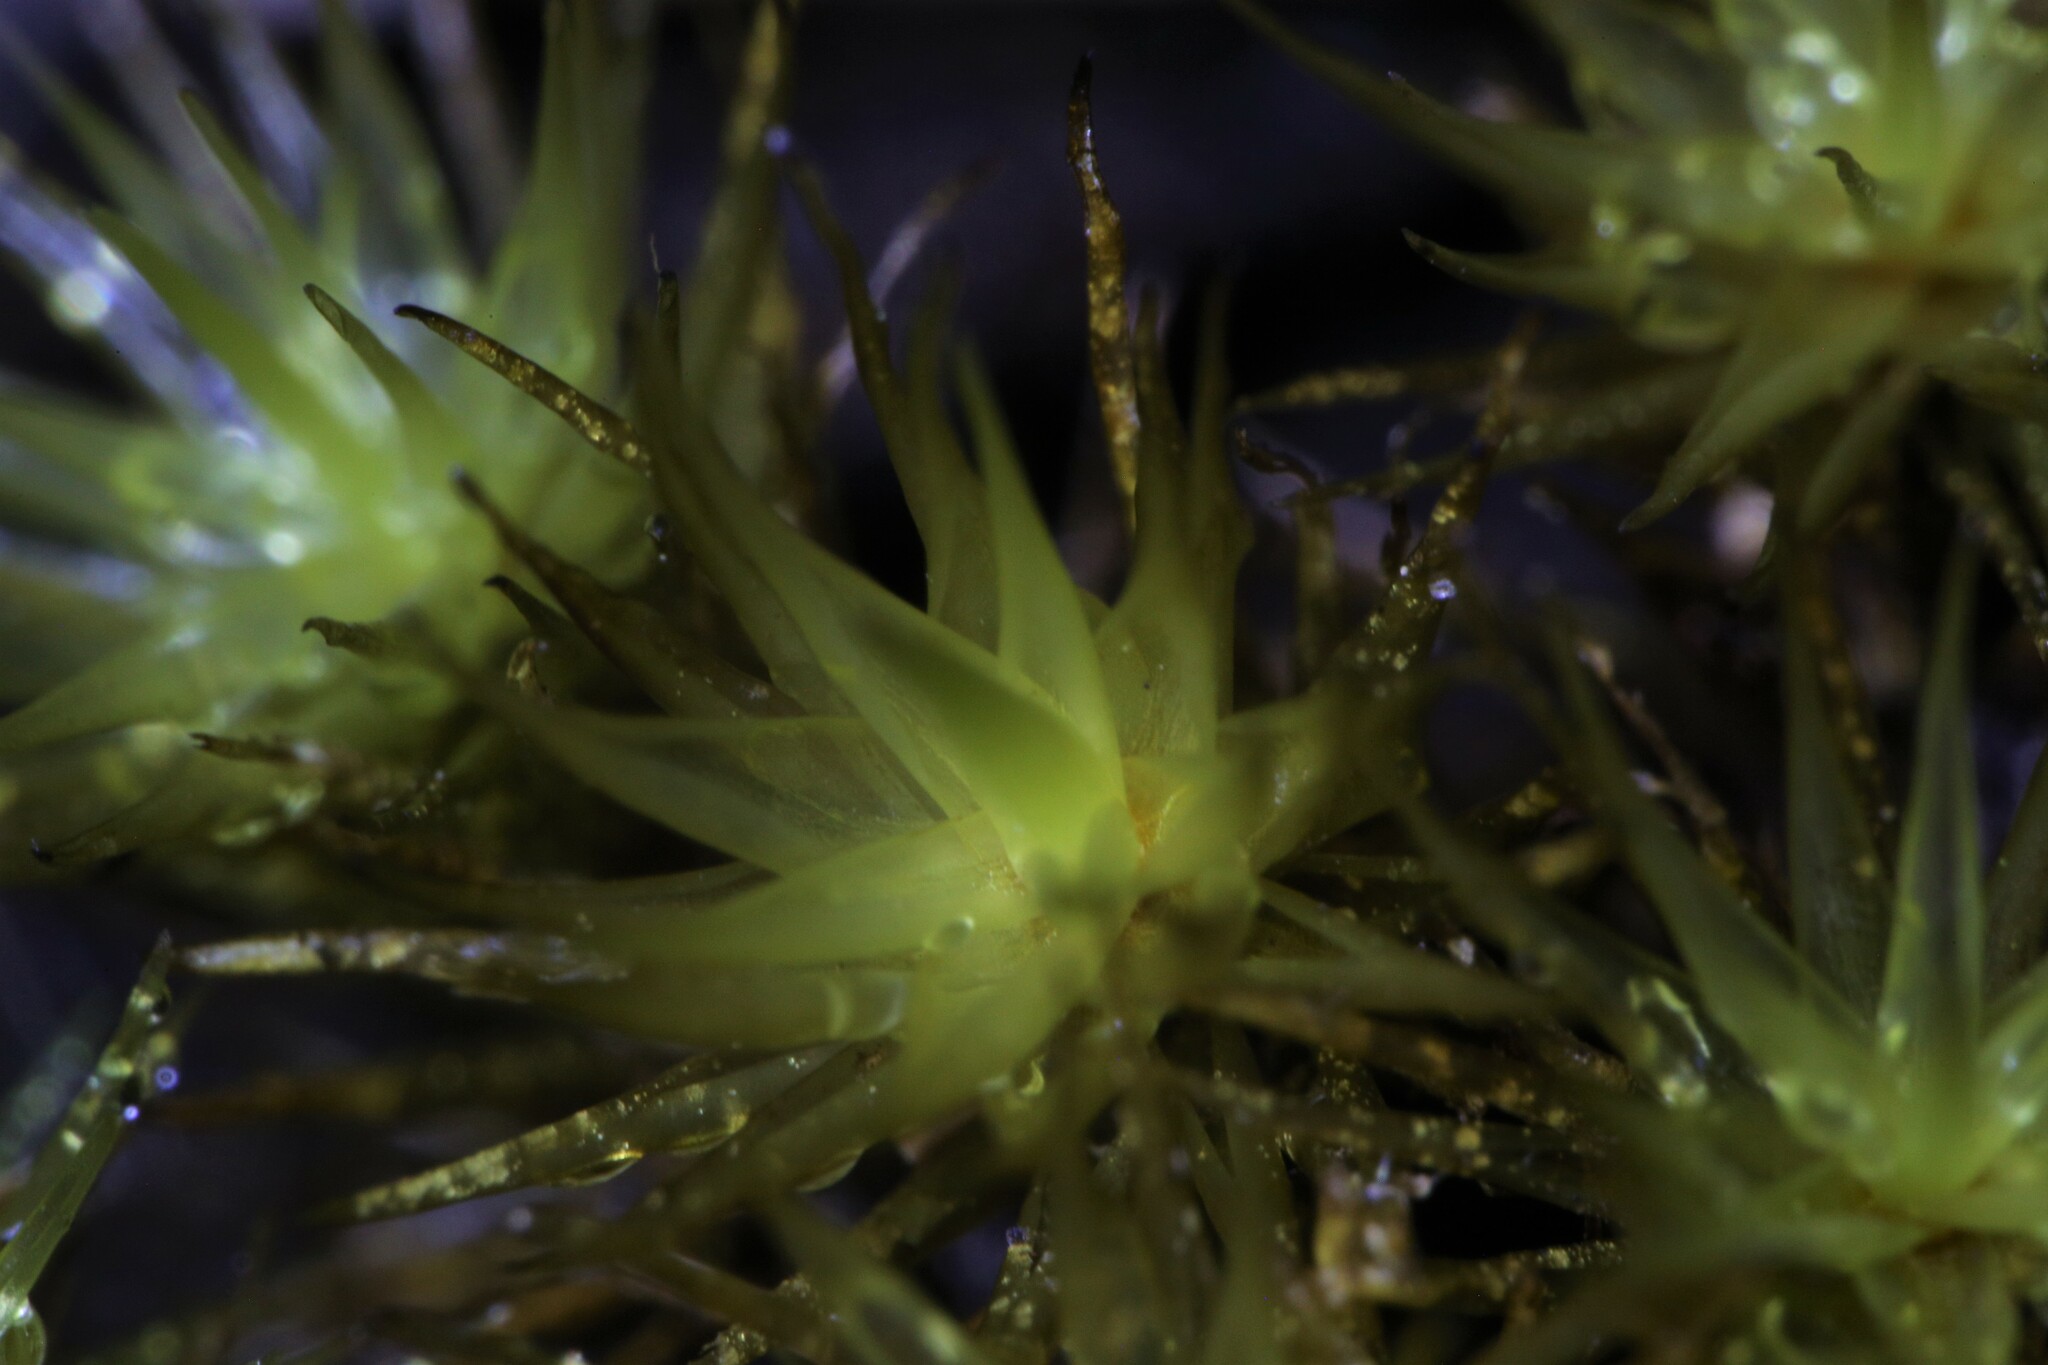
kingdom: Plantae
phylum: Bryophyta
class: Bryopsida
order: Dicranales
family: Leucobryaceae
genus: Campylopus
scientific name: Campylopus acuminatus
